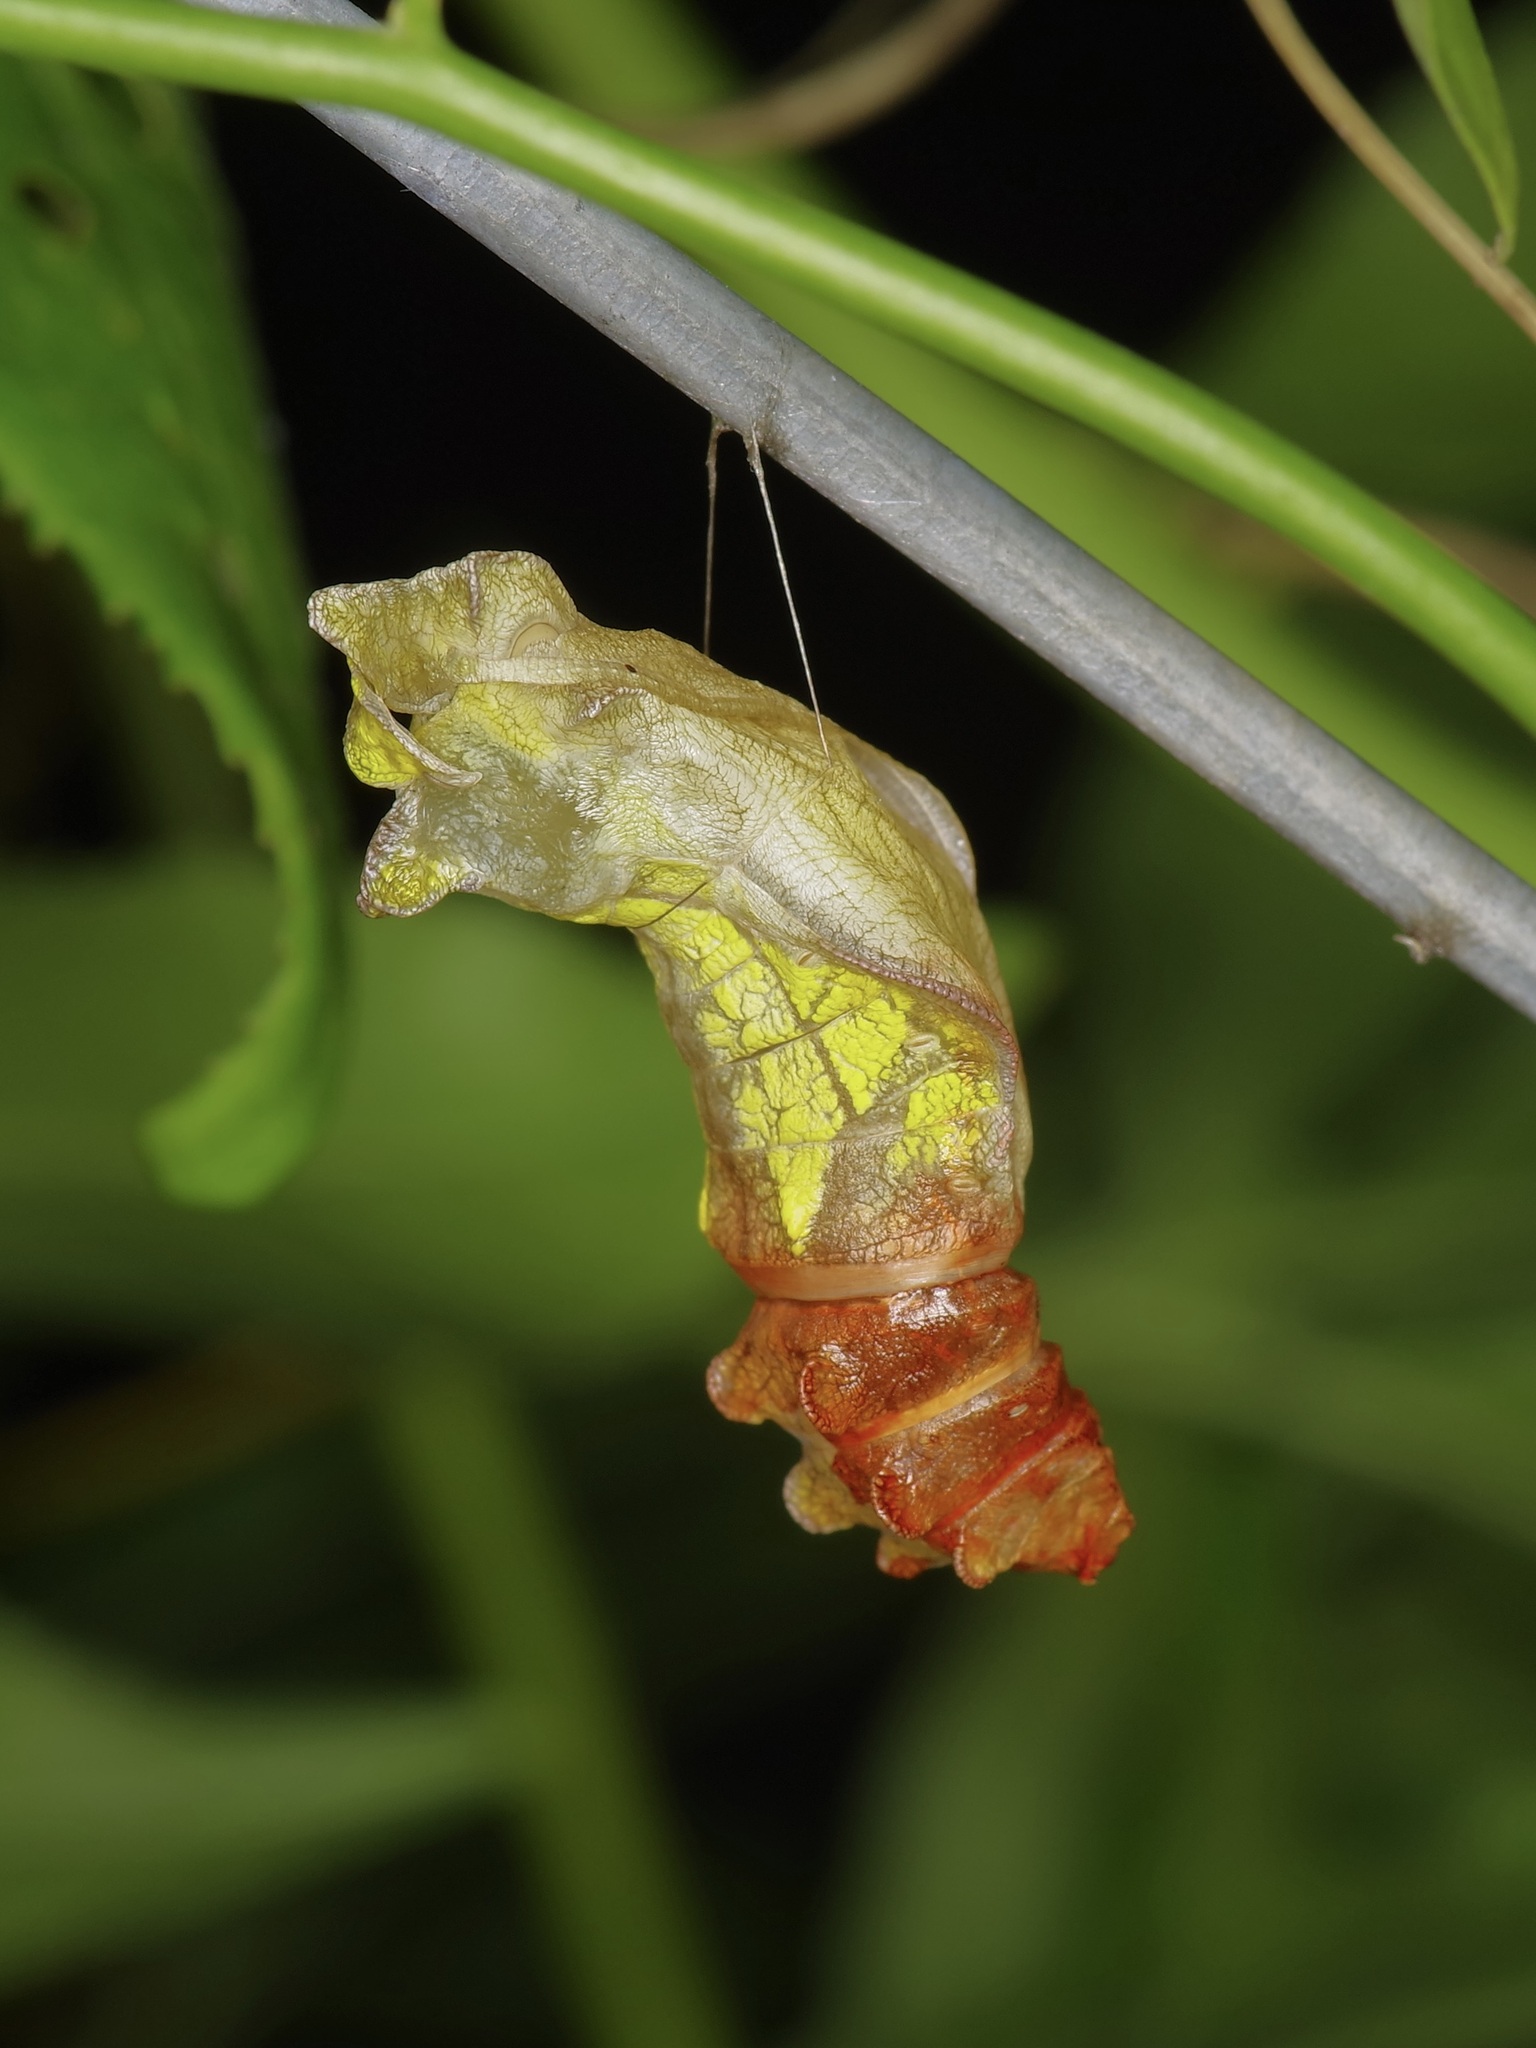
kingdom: Animalia
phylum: Arthropoda
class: Insecta
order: Lepidoptera
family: Papilionidae
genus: Battus
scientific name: Battus philenor
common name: Pipevine swallowtail
